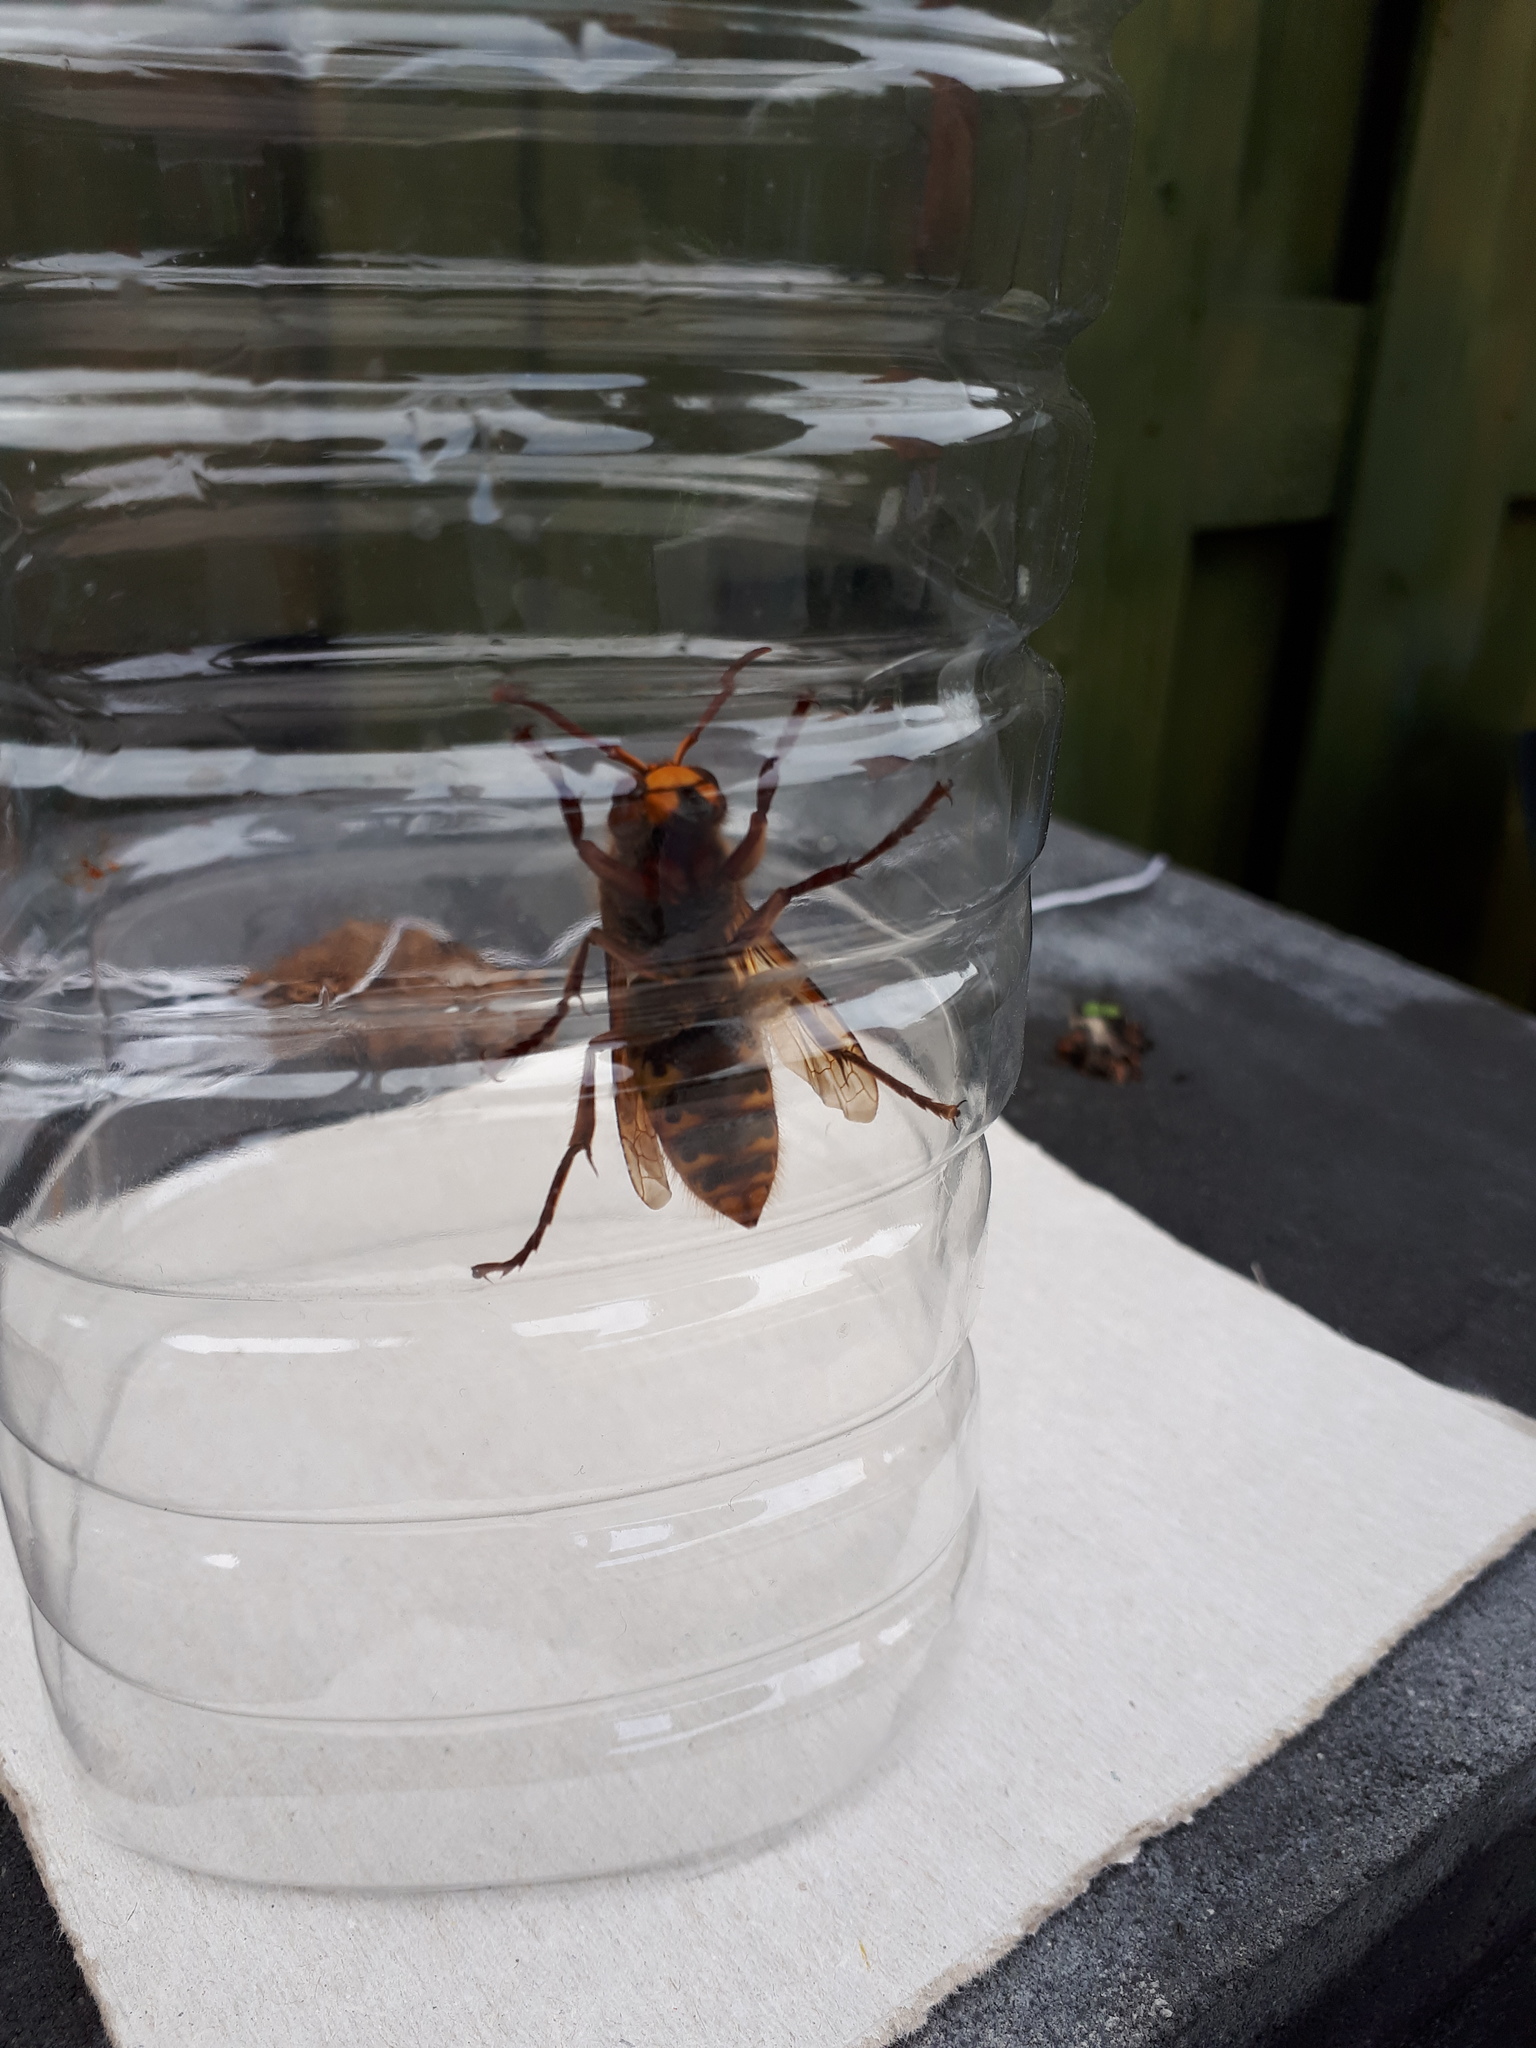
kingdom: Animalia
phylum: Arthropoda
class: Insecta
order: Hymenoptera
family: Vespidae
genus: Vespa
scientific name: Vespa crabro
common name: Hornet
